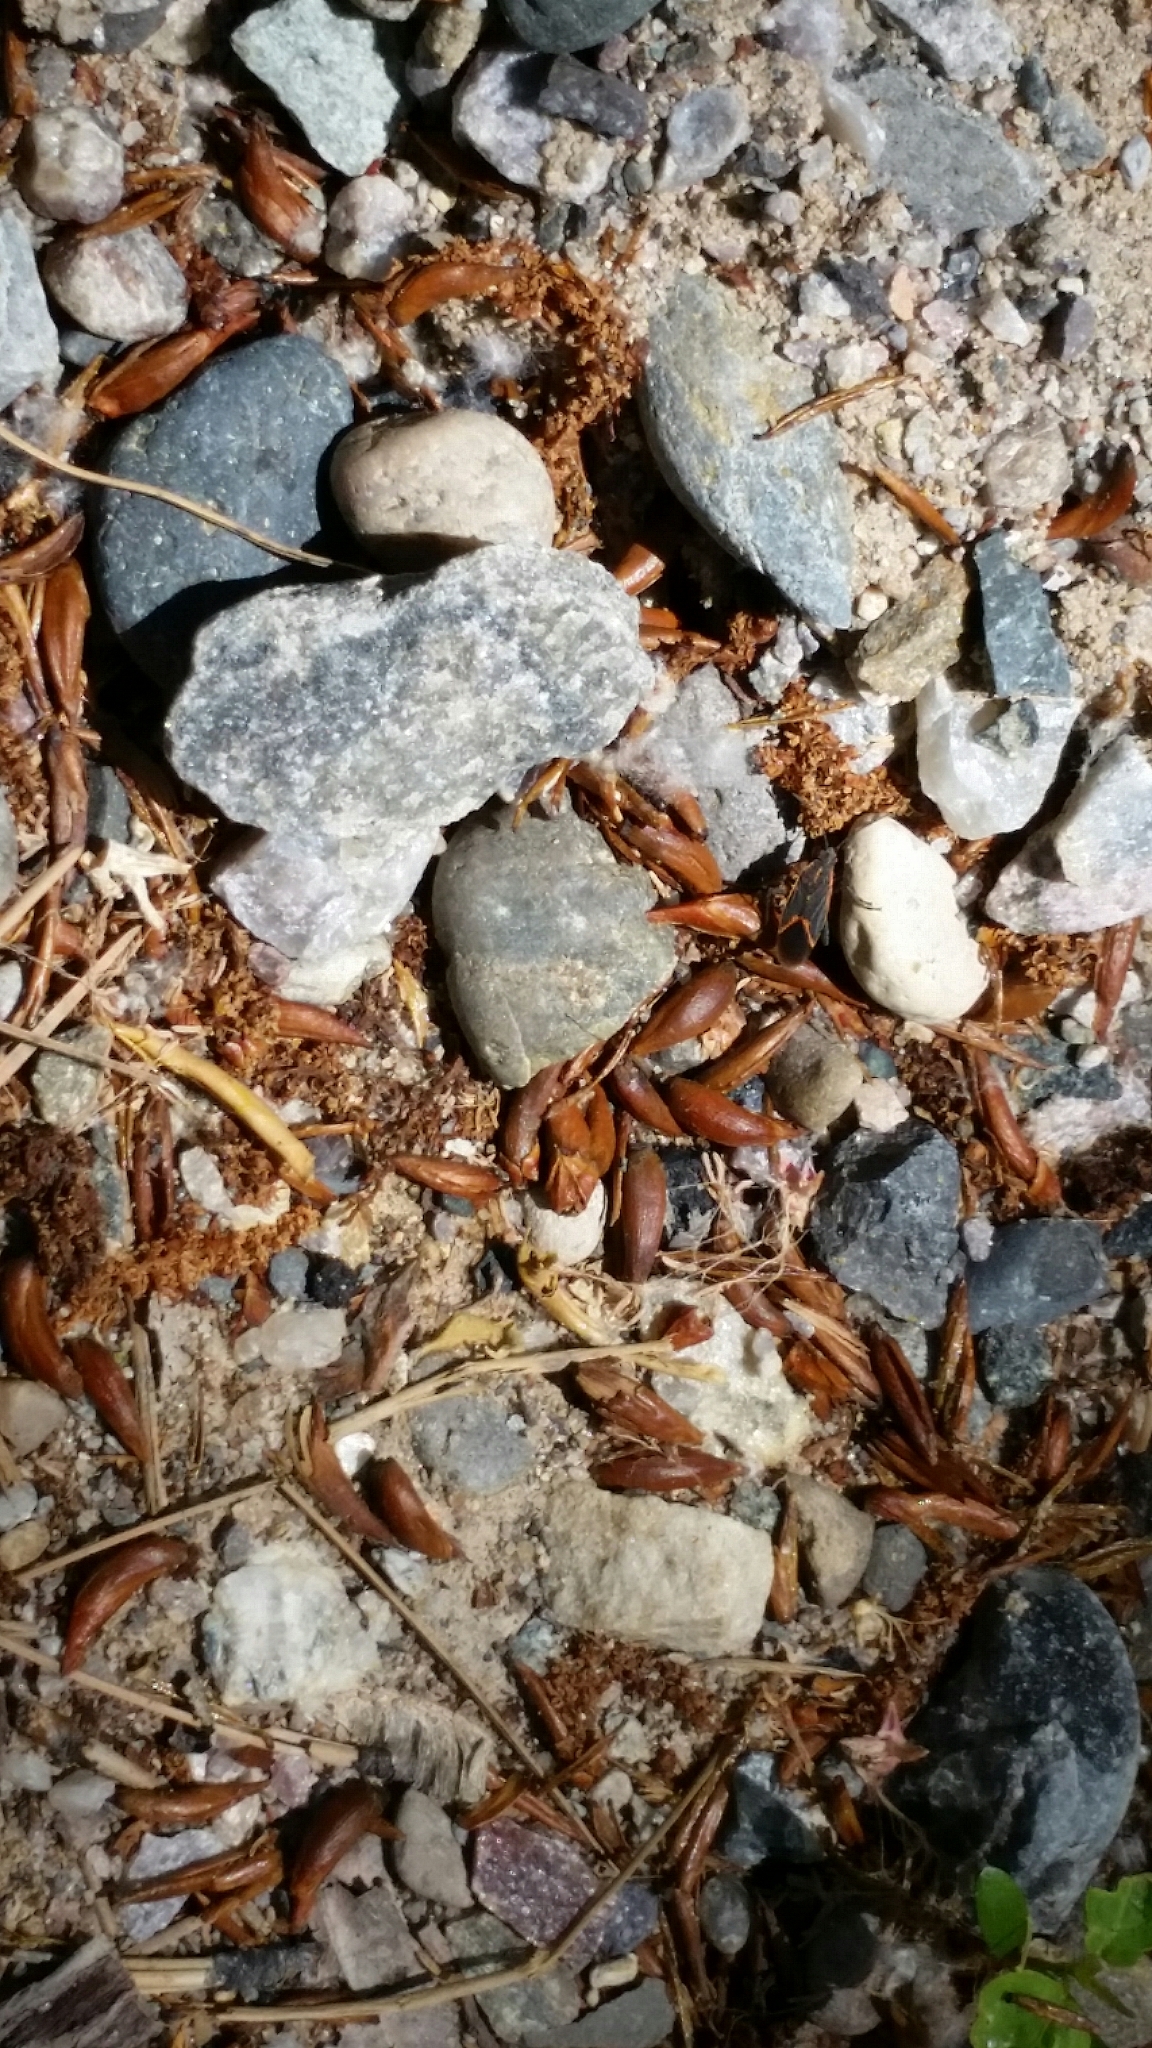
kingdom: Animalia
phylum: Arthropoda
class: Insecta
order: Hemiptera
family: Rhopalidae
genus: Boisea
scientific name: Boisea trivittata
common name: Boxelder bug
